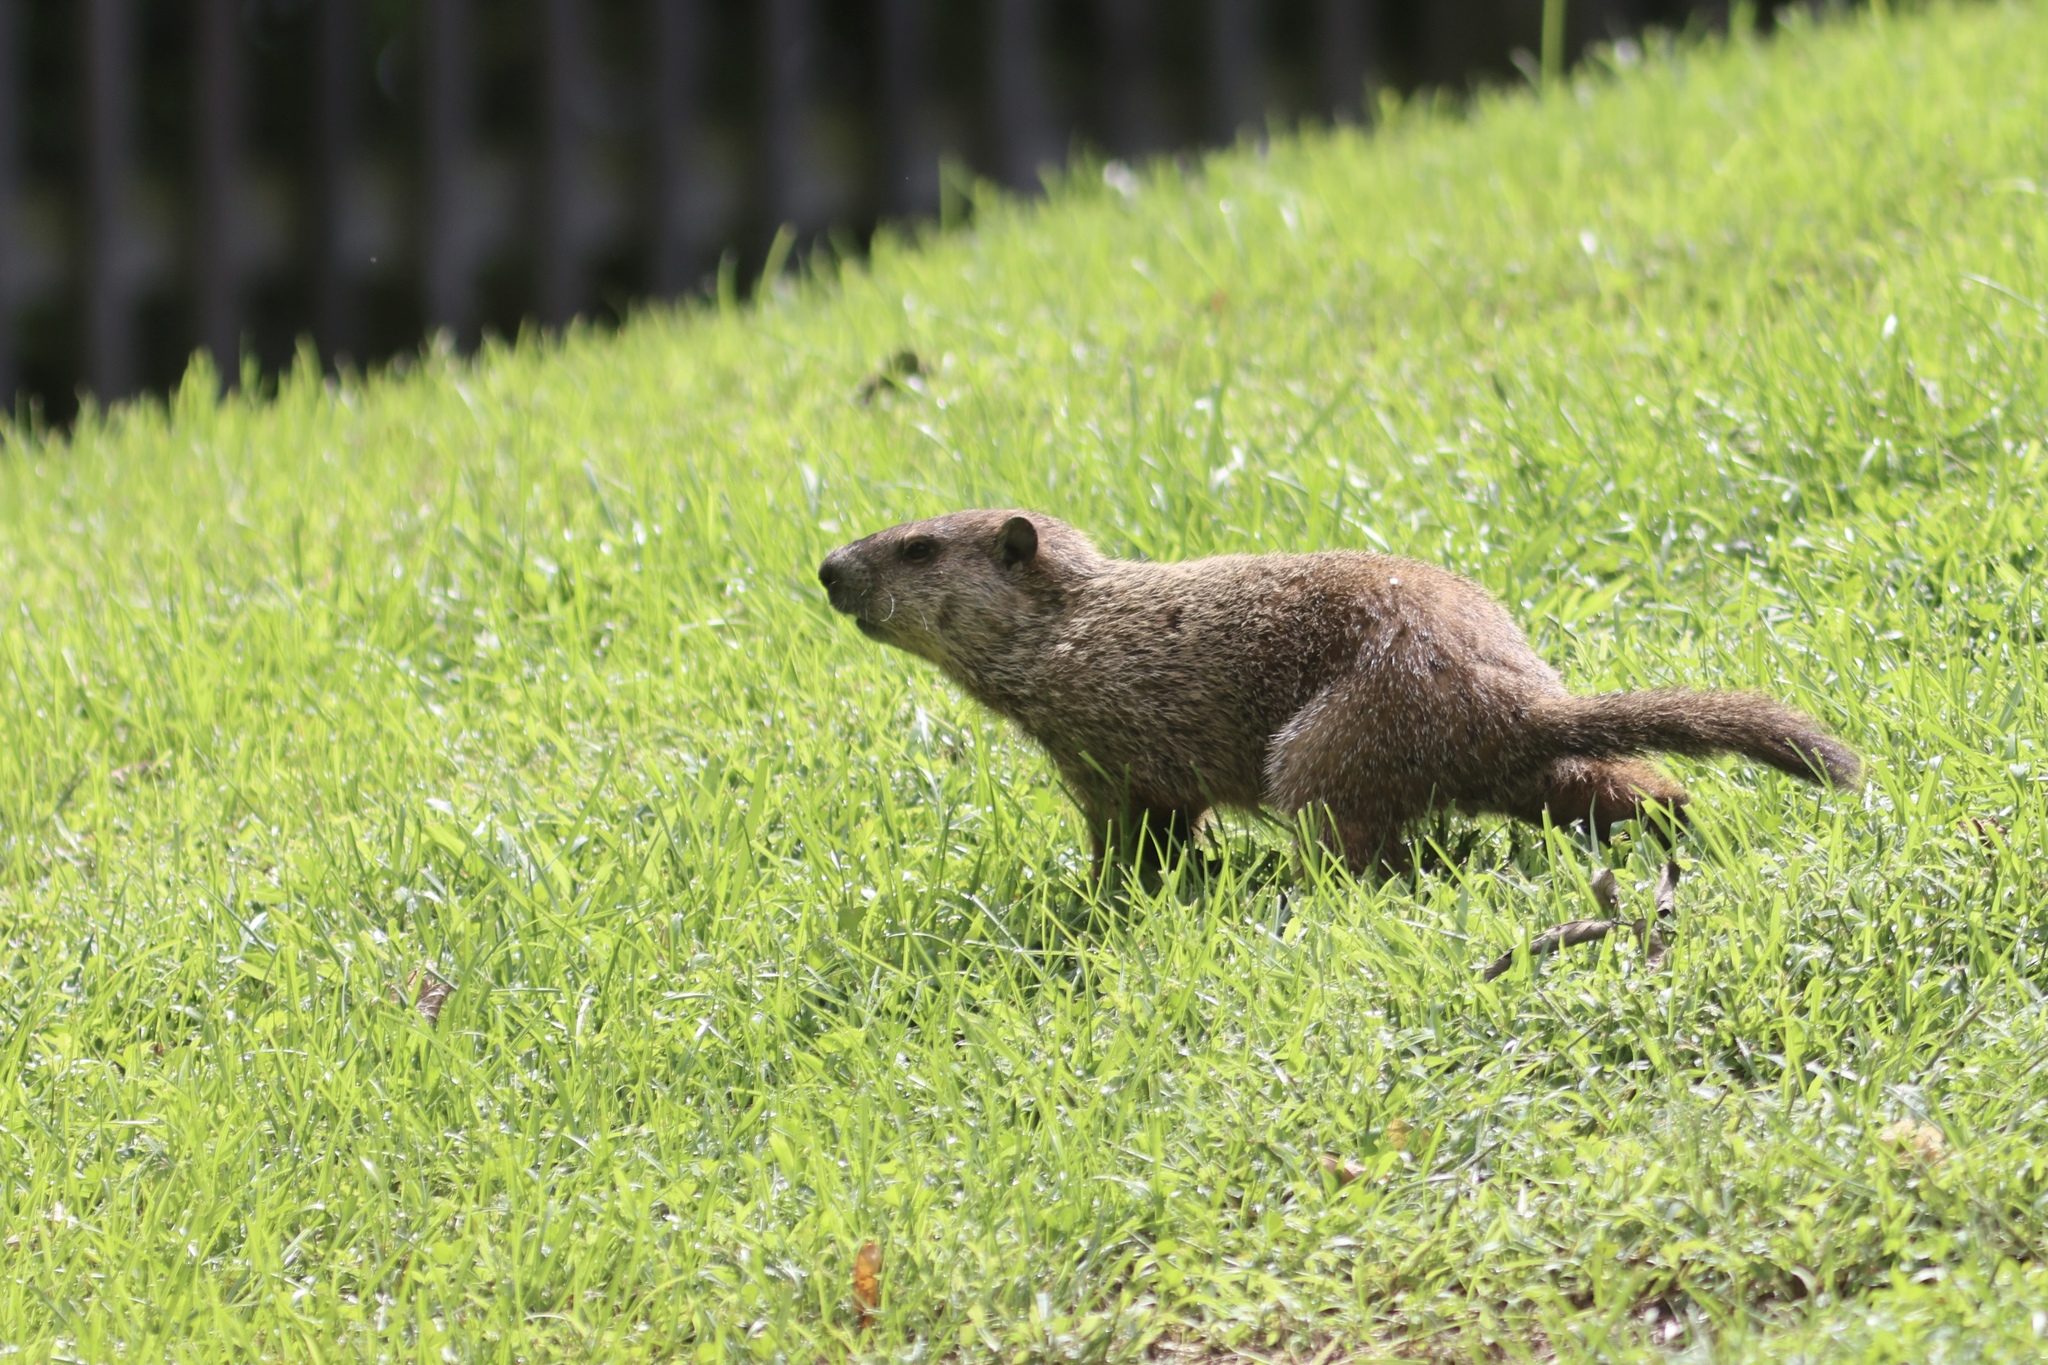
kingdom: Animalia
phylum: Chordata
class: Mammalia
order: Rodentia
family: Sciuridae
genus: Marmota
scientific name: Marmota monax
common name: Groundhog
